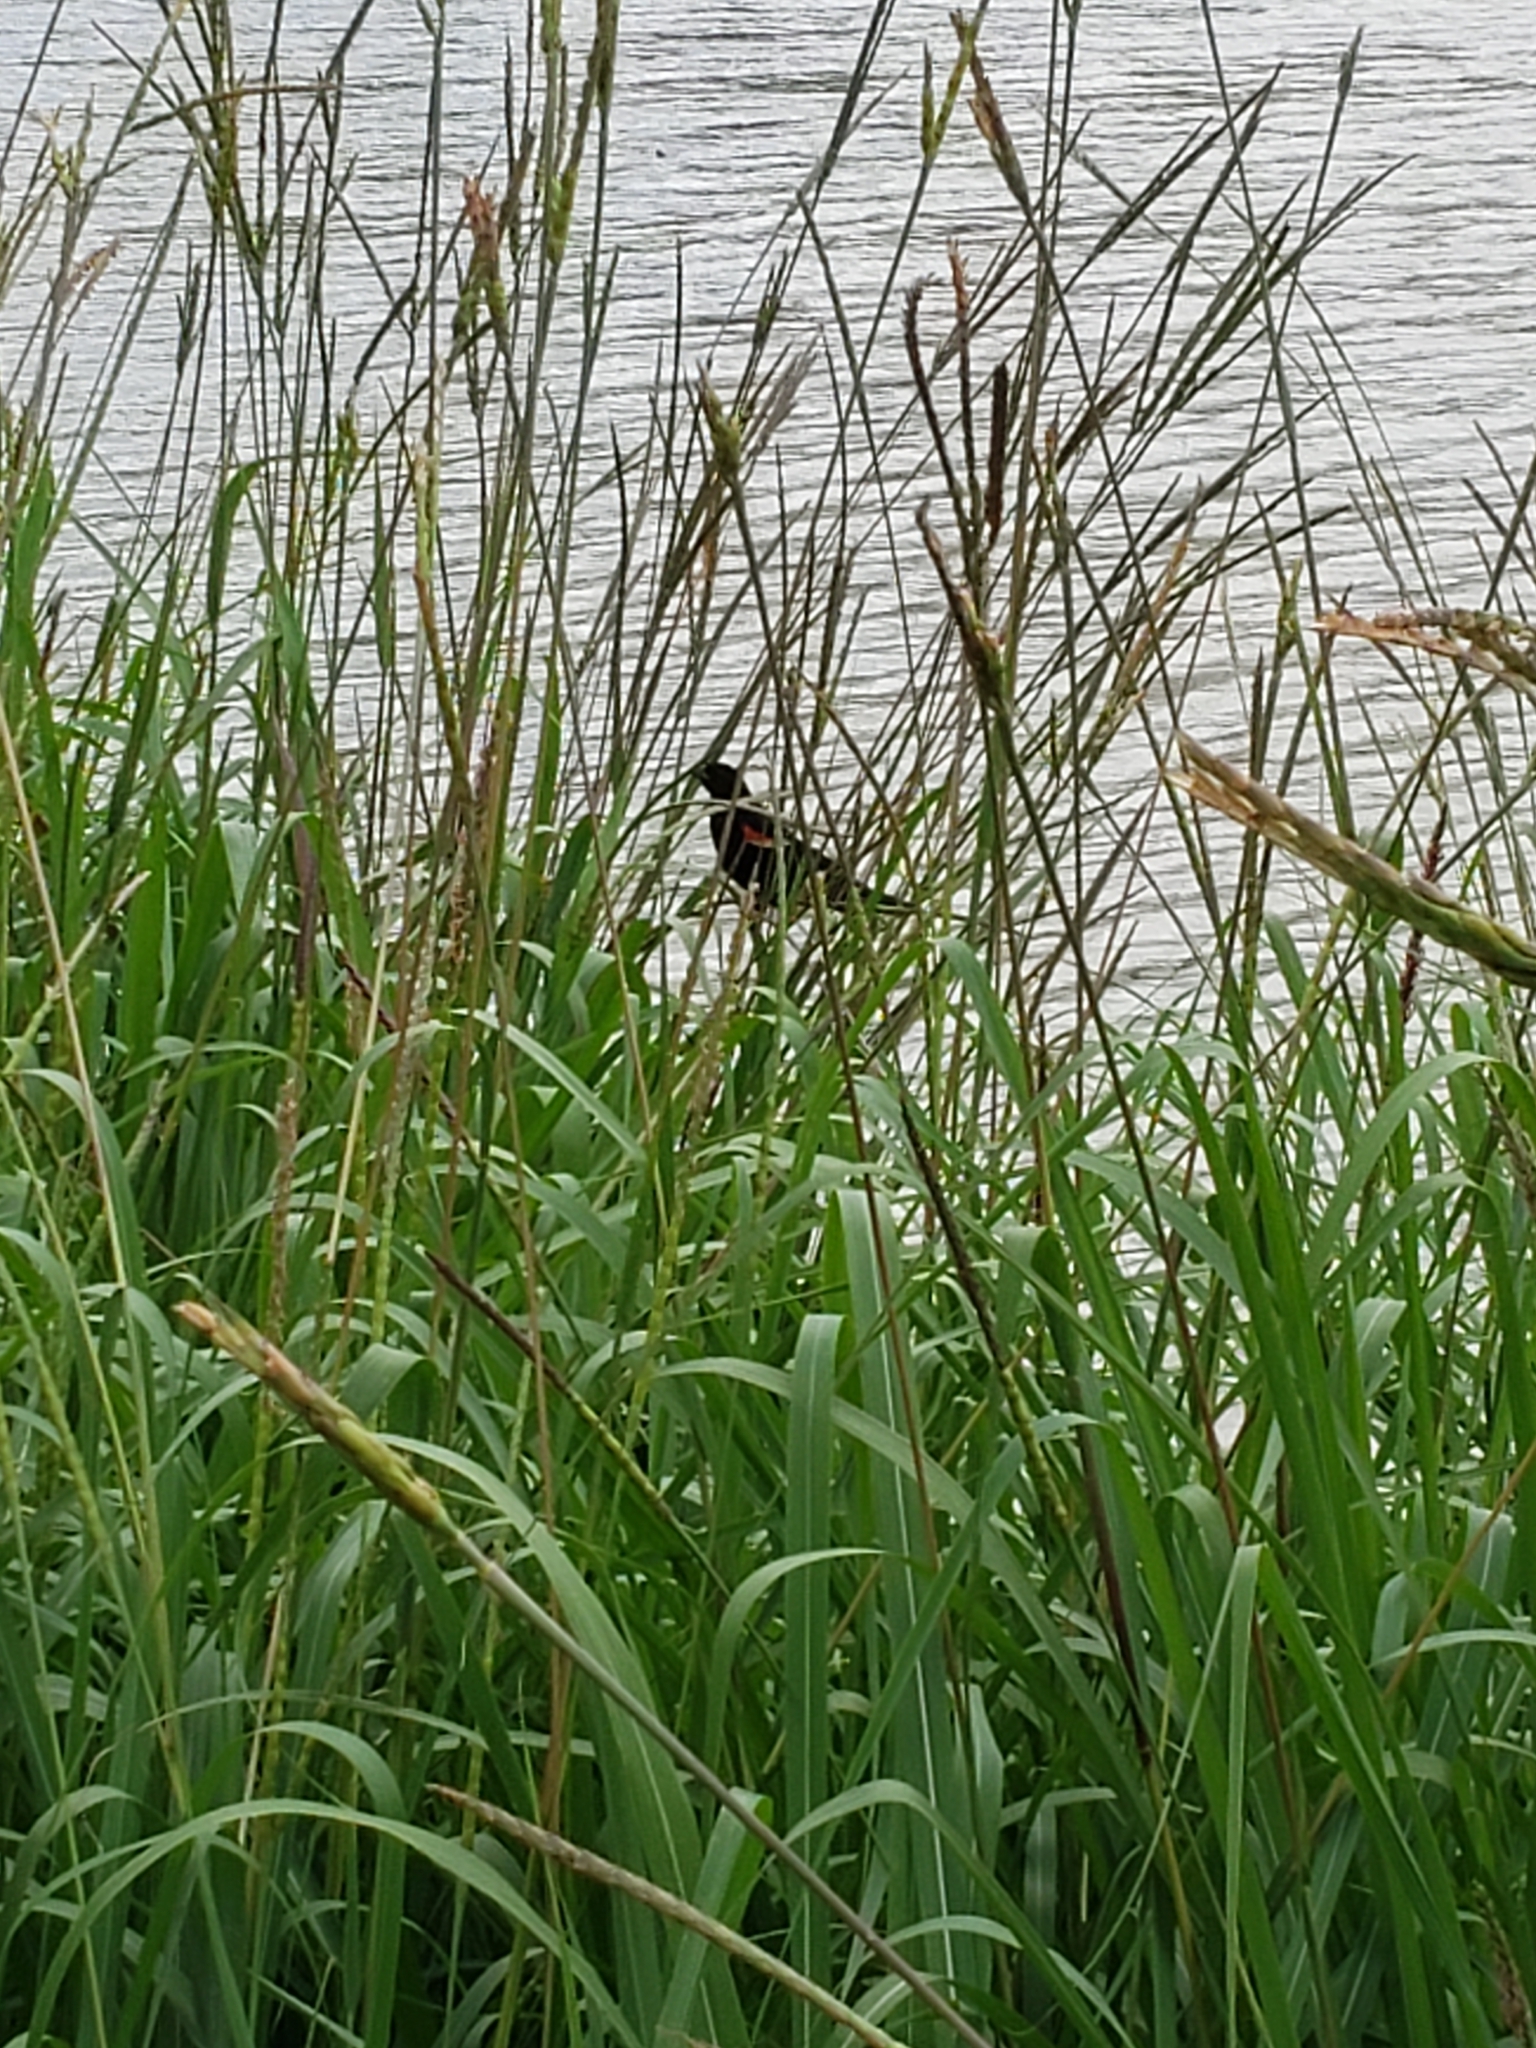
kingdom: Animalia
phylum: Chordata
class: Aves
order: Passeriformes
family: Icteridae
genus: Agelaius
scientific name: Agelaius phoeniceus
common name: Red-winged blackbird
